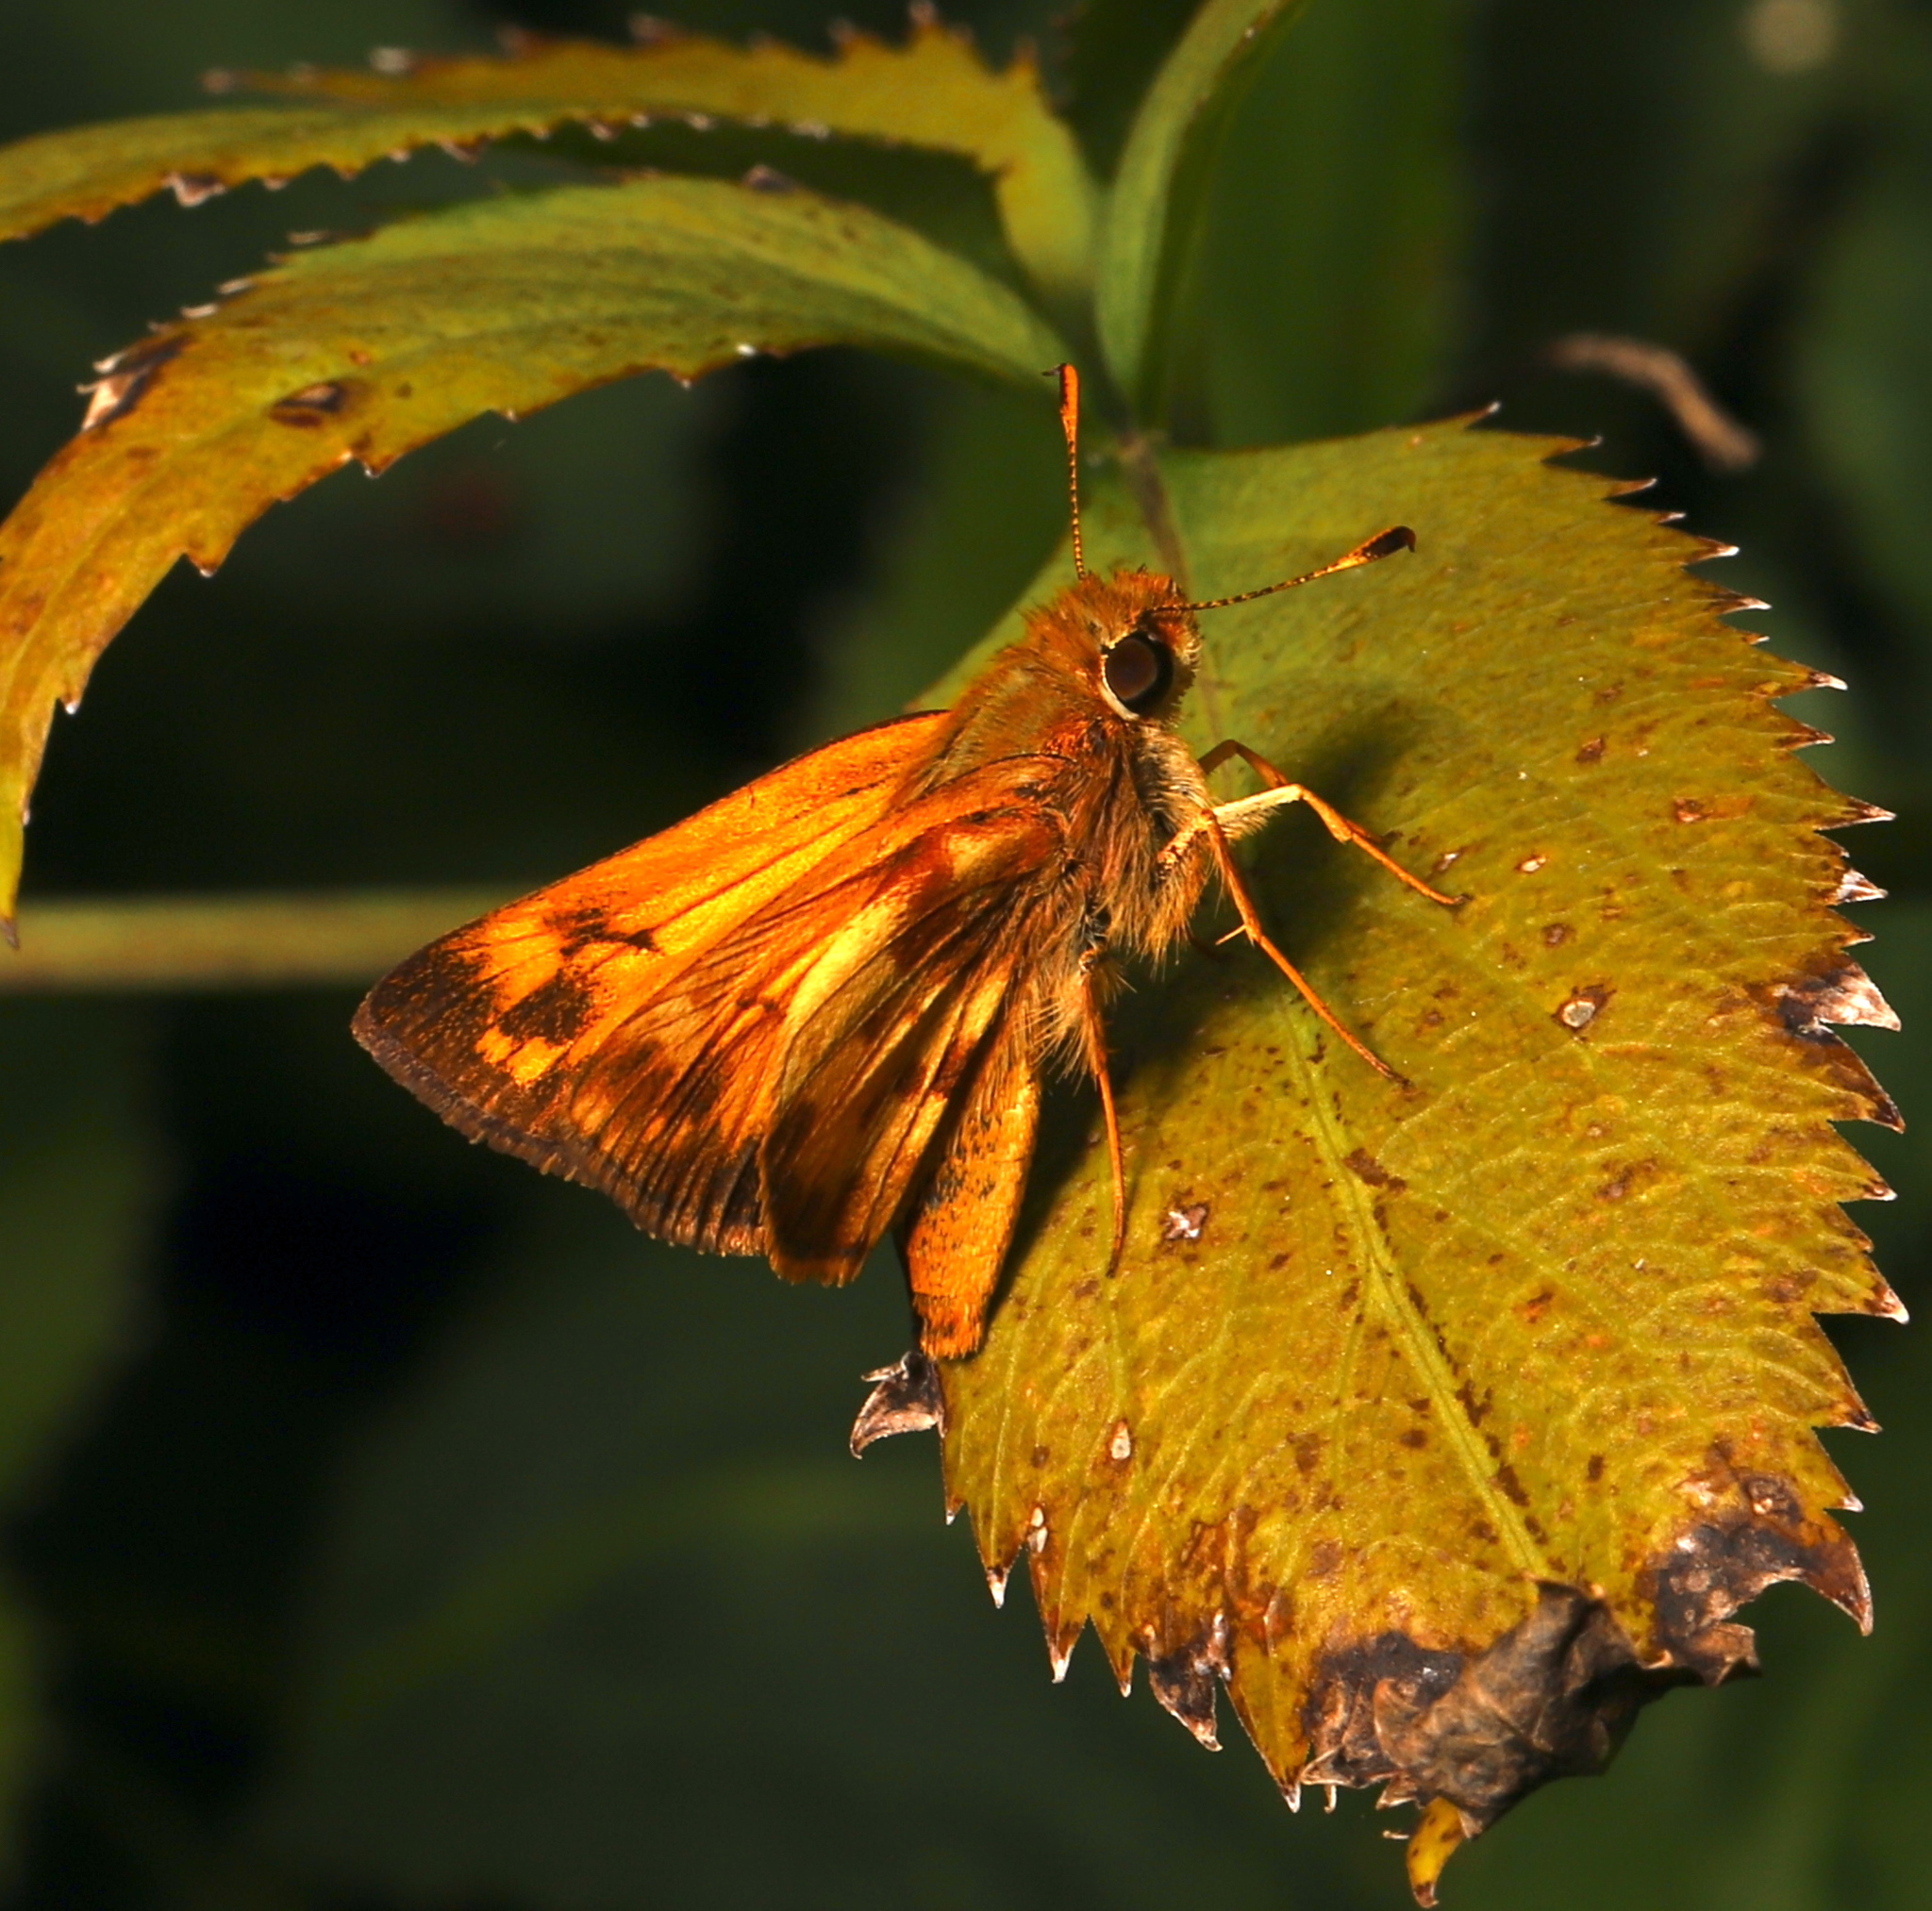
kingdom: Animalia
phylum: Arthropoda
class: Insecta
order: Lepidoptera
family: Hesperiidae
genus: Lon
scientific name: Lon zabulon
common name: Zabulon skipper
